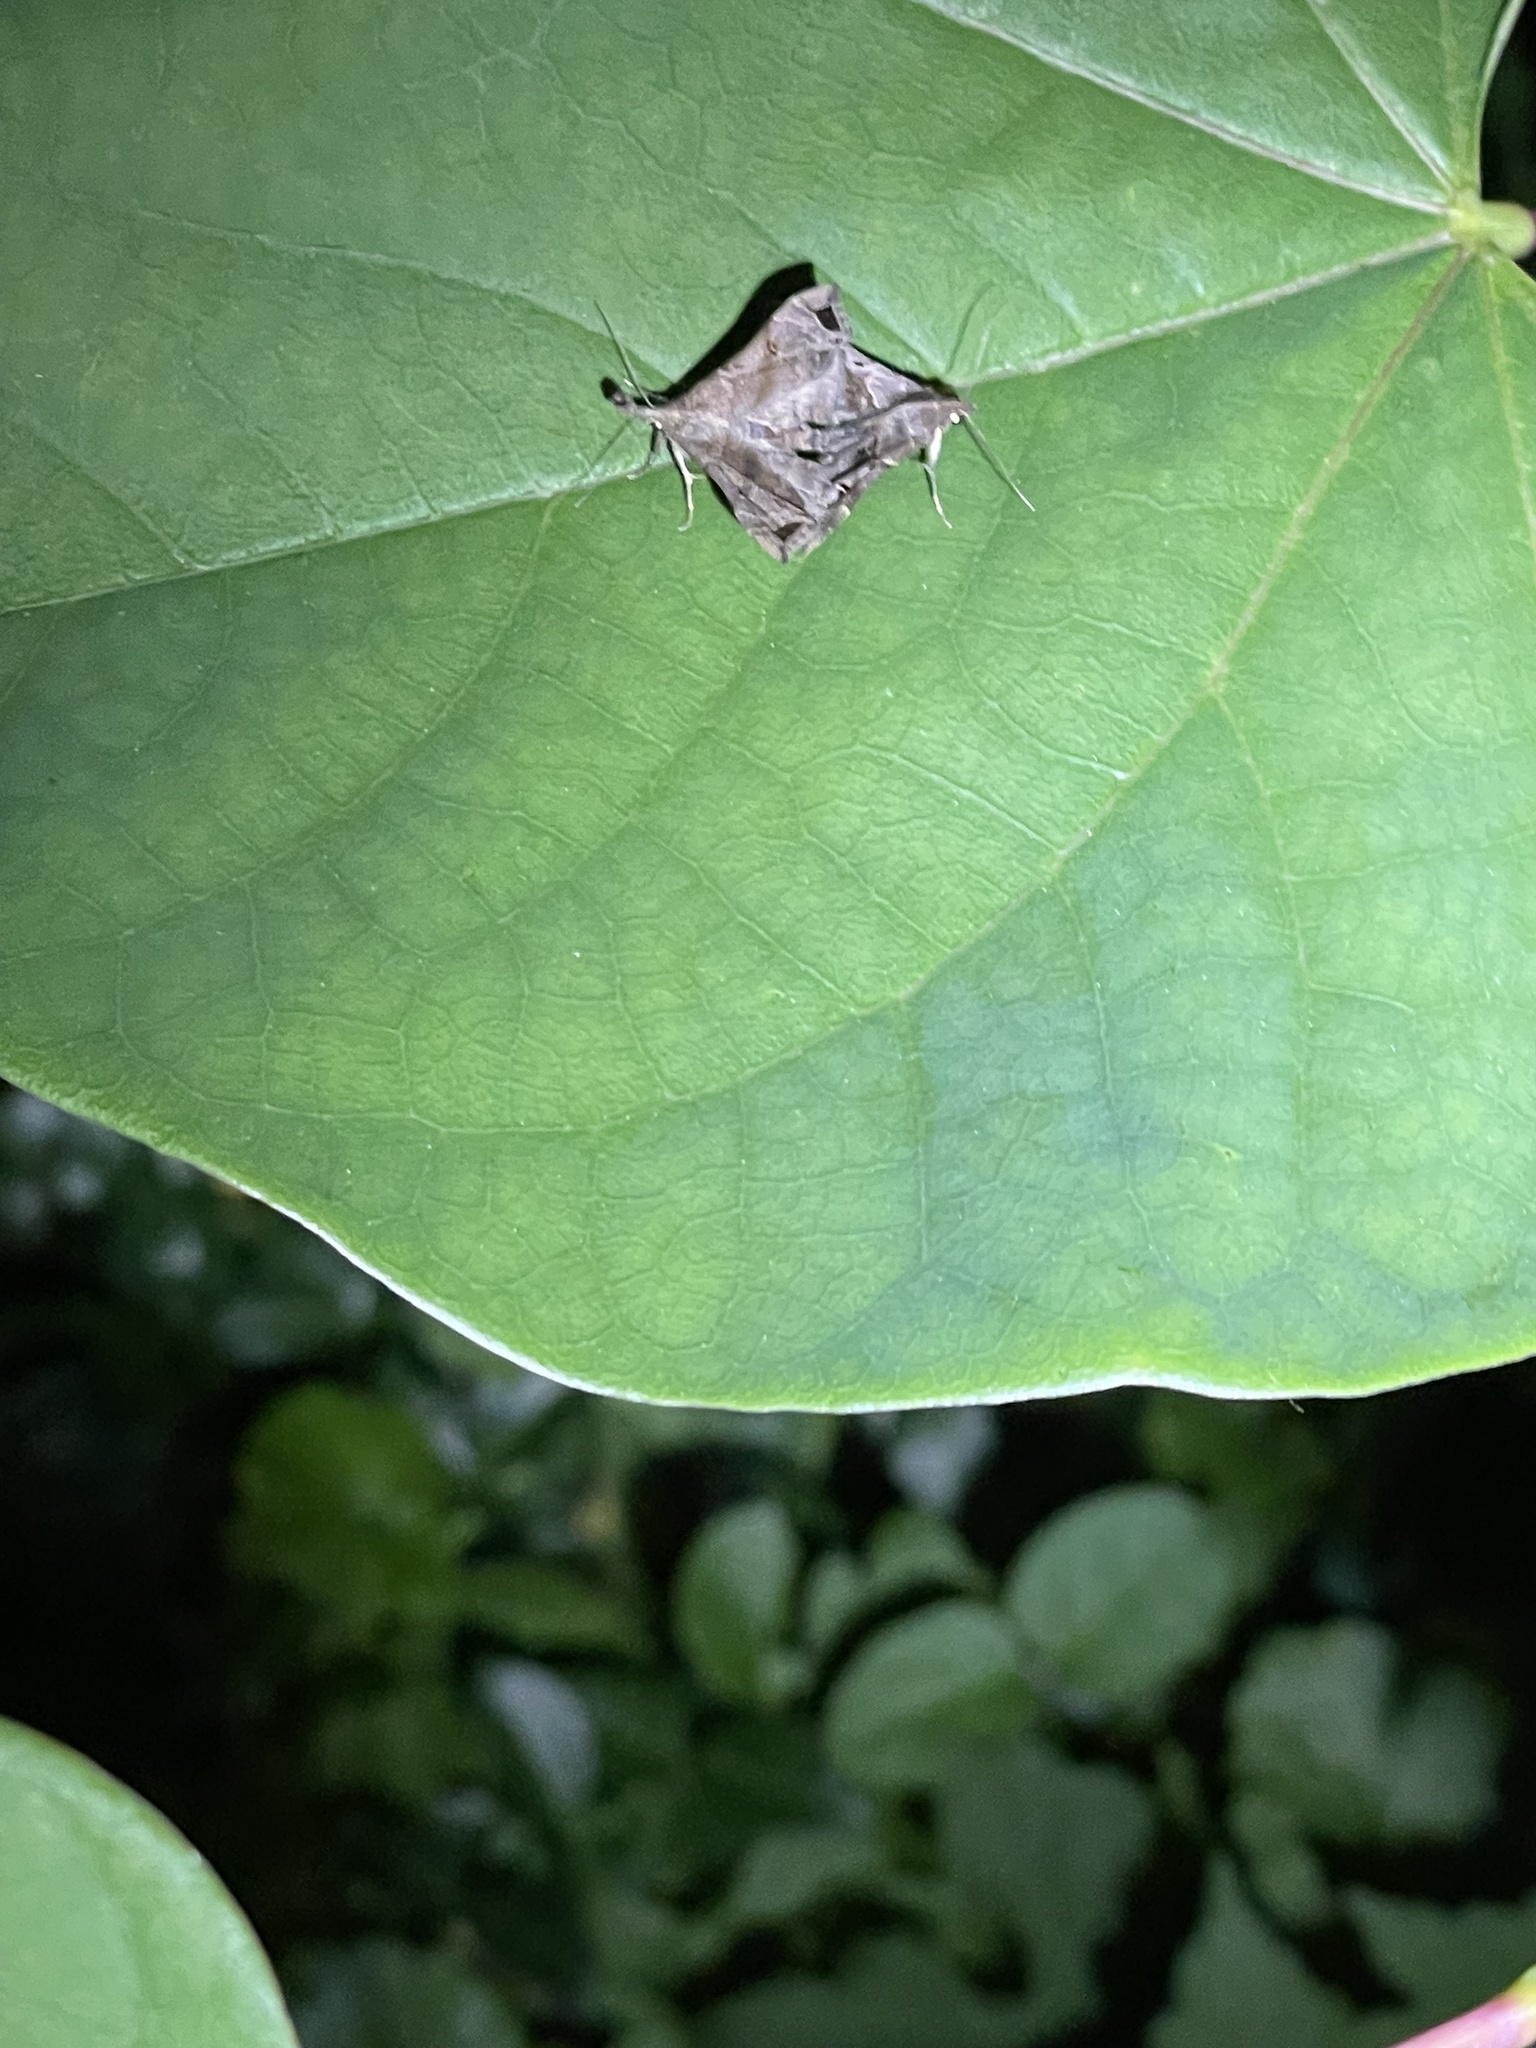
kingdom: Animalia
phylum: Arthropoda
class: Insecta
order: Lepidoptera
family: Erebidae
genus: Palthis
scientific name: Palthis asopialis
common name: Faint-spotted palthis moth
